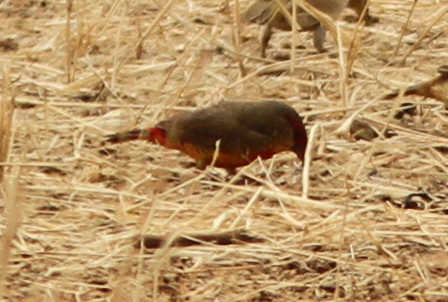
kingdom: Animalia
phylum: Chordata
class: Aves
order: Passeriformes
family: Estrildidae
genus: Amandava
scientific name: Amandava subflava
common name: Orange-breasted waxbill
